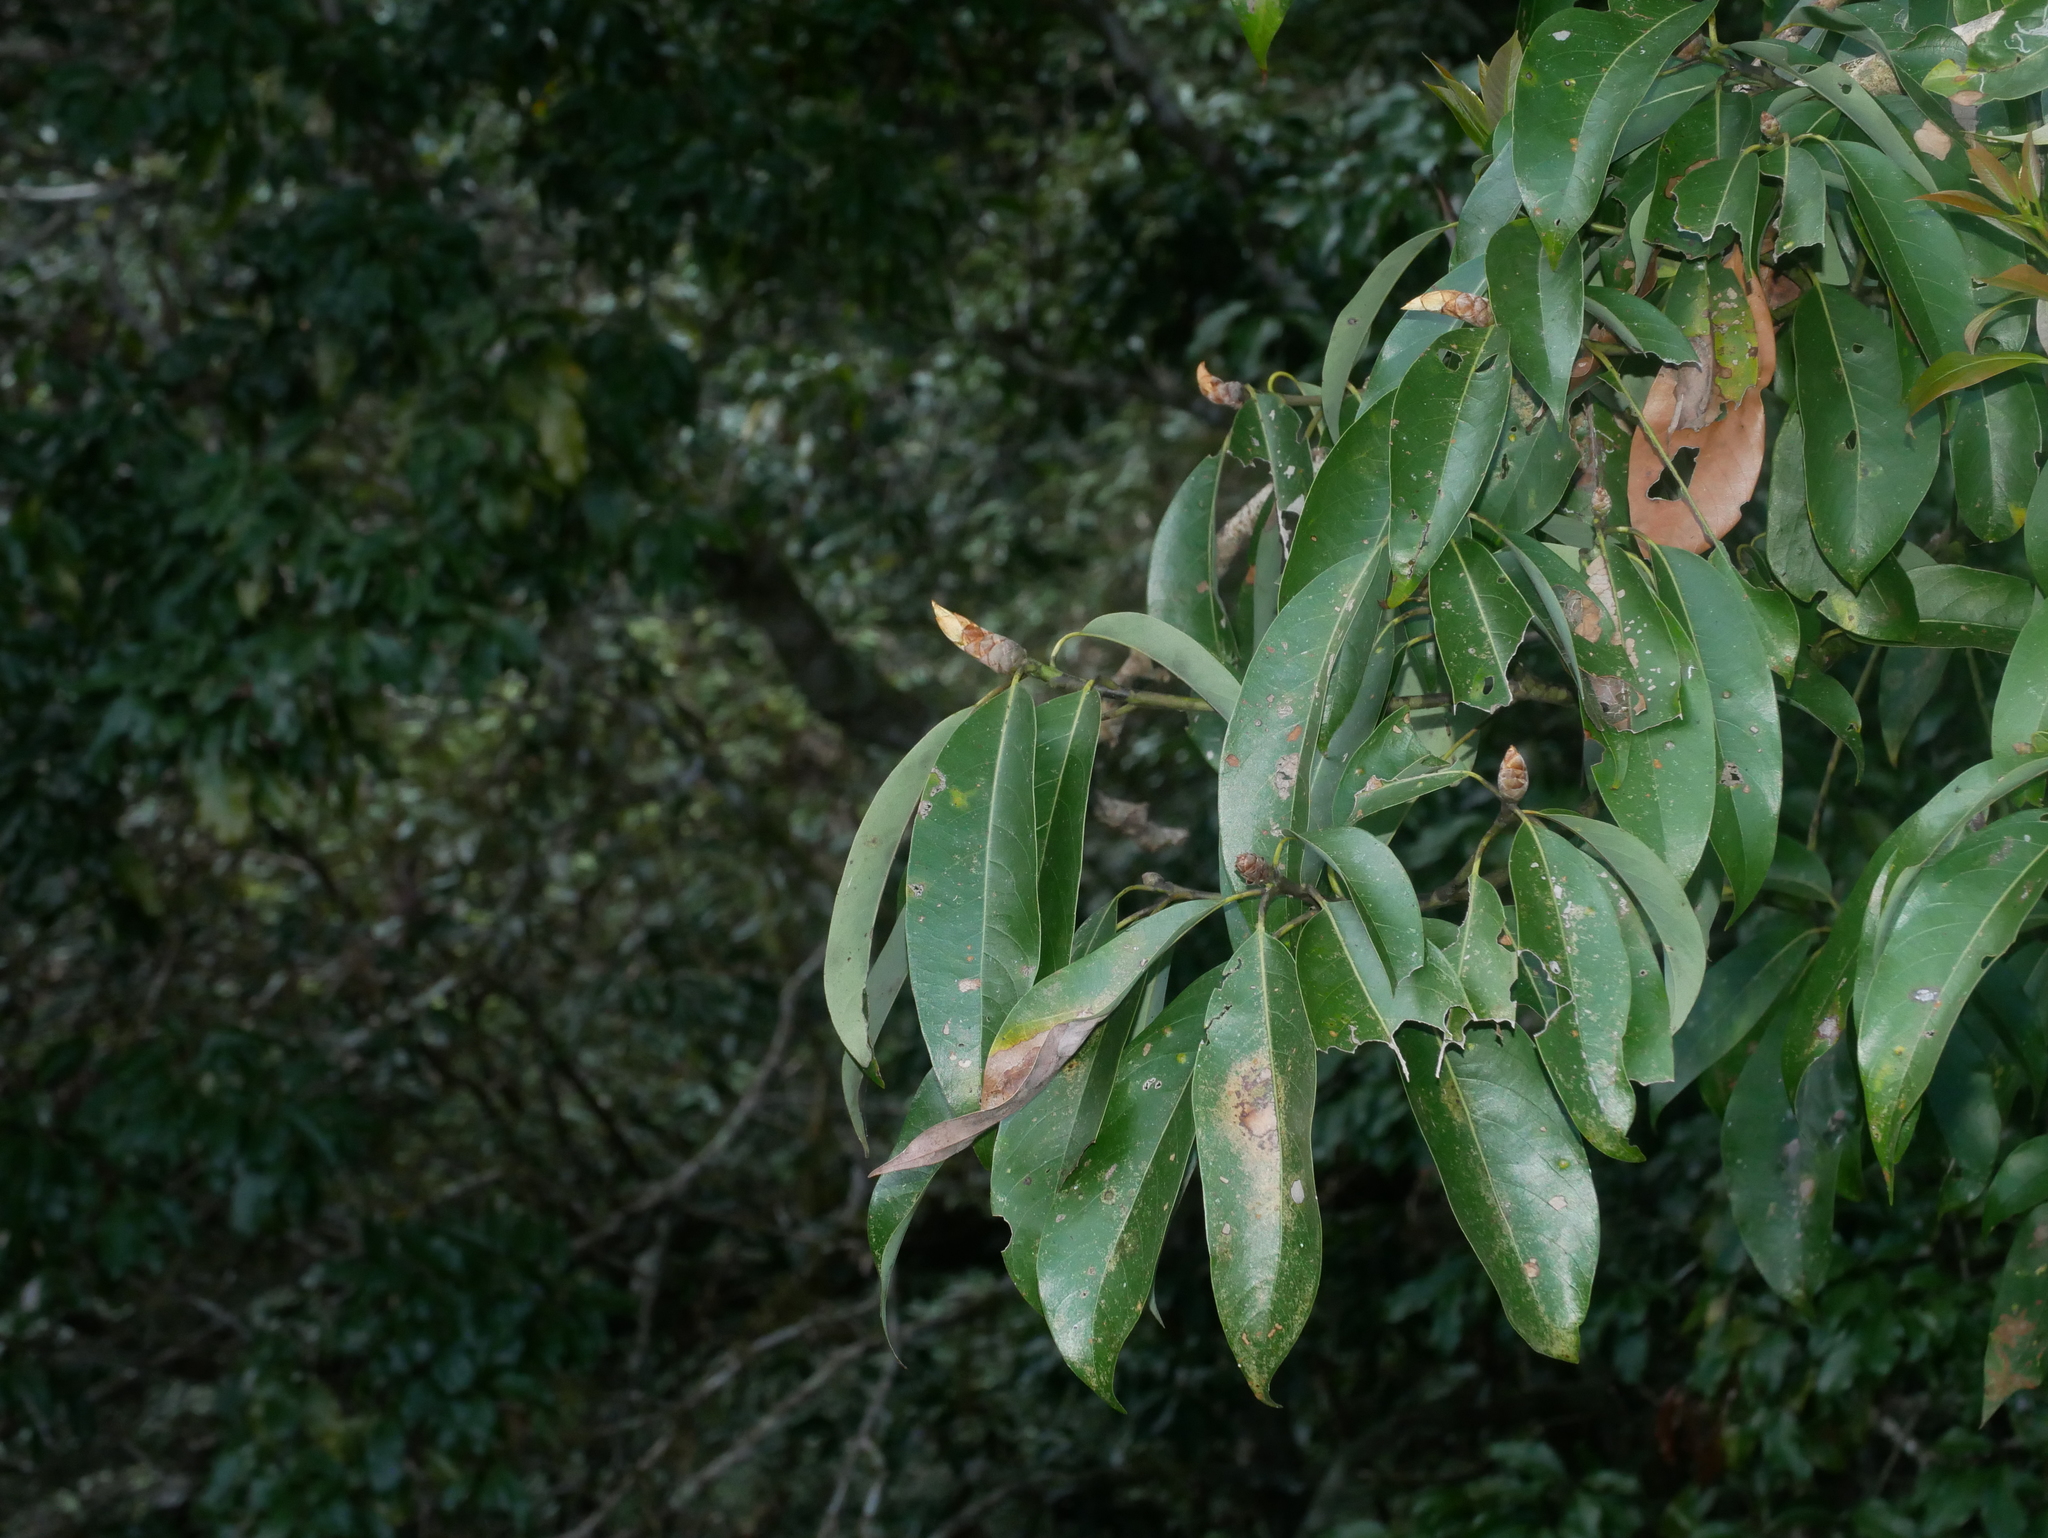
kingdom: Plantae
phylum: Tracheophyta
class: Magnoliopsida
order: Laurales
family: Lauraceae
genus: Machilus
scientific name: Machilus zuihoensis
